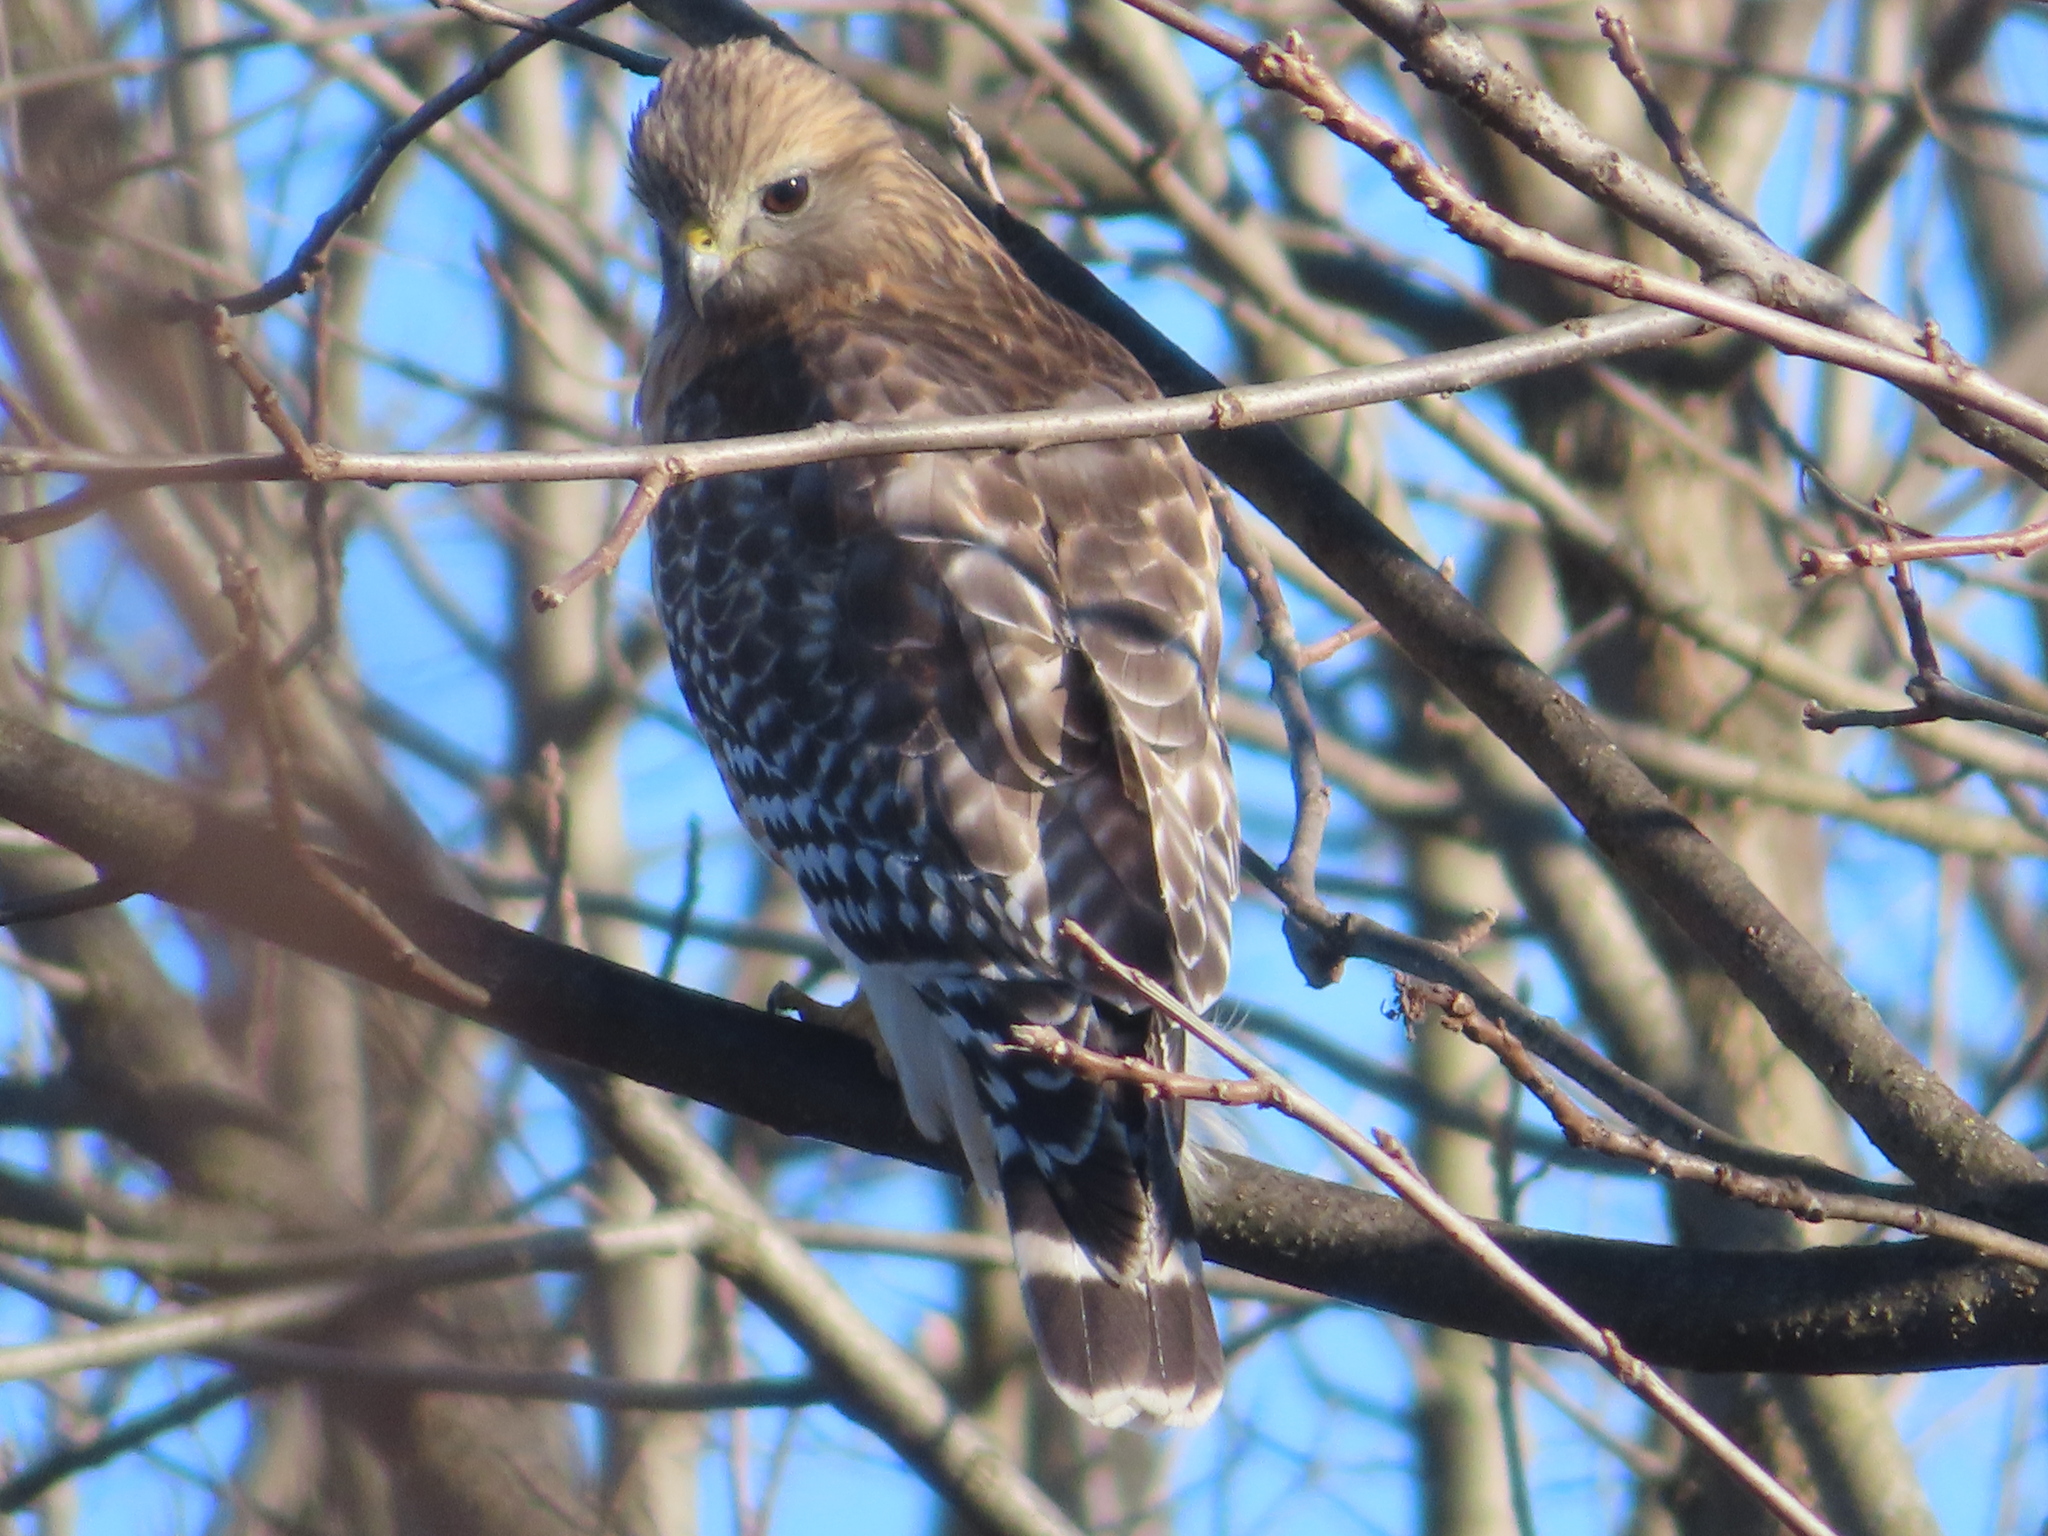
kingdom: Animalia
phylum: Chordata
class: Aves
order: Accipitriformes
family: Accipitridae
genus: Buteo
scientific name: Buteo lineatus
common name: Red-shouldered hawk
